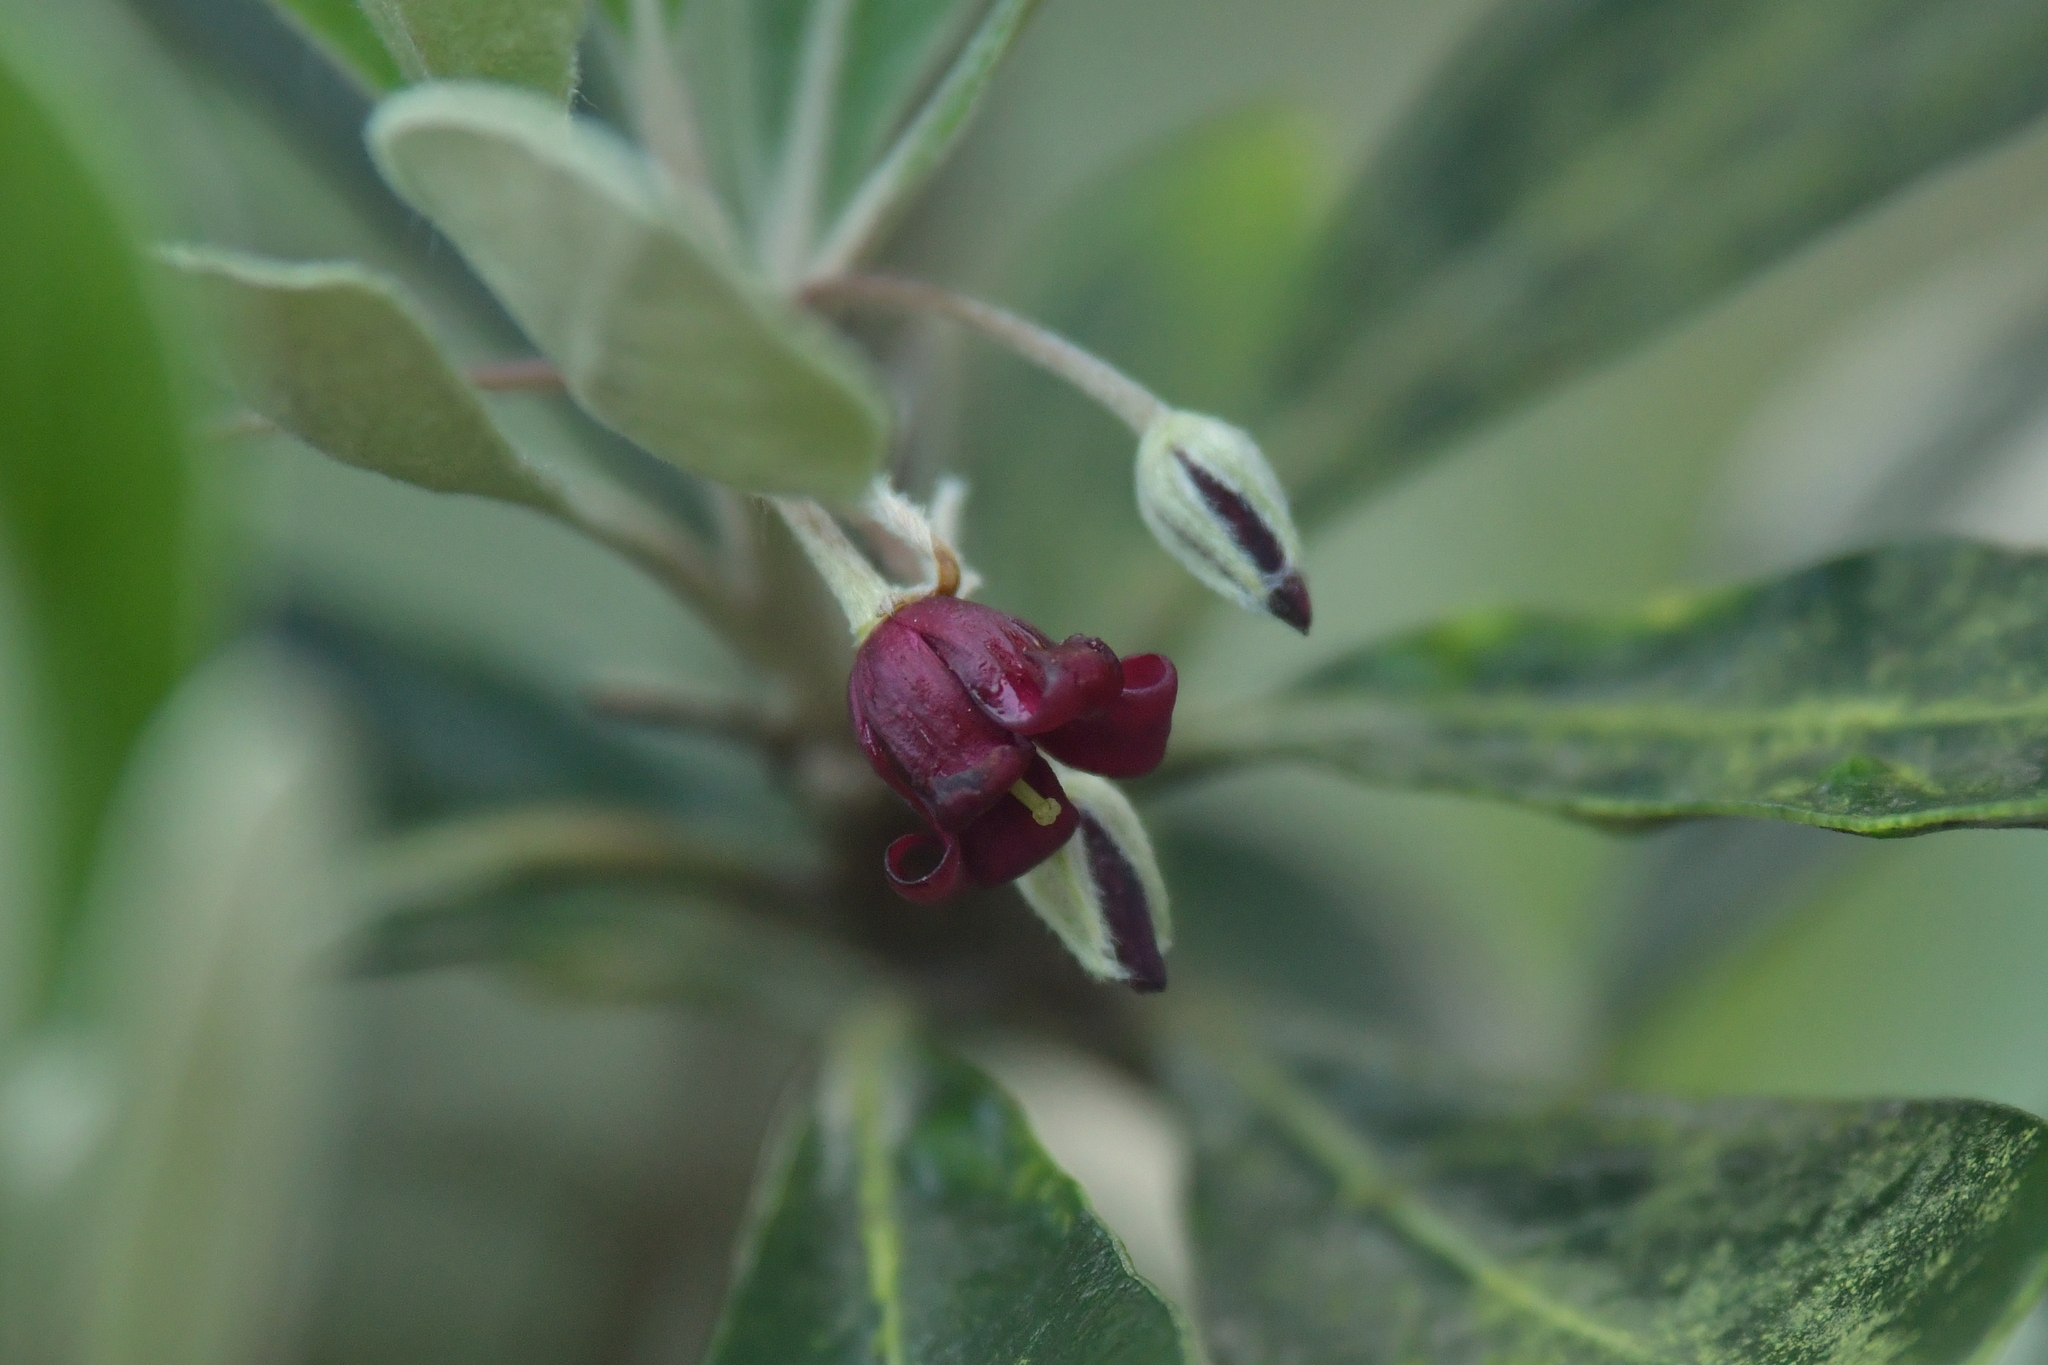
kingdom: Plantae
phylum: Tracheophyta
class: Magnoliopsida
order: Apiales
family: Pittosporaceae
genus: Pittosporum
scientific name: Pittosporum crassifolium
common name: Karo
